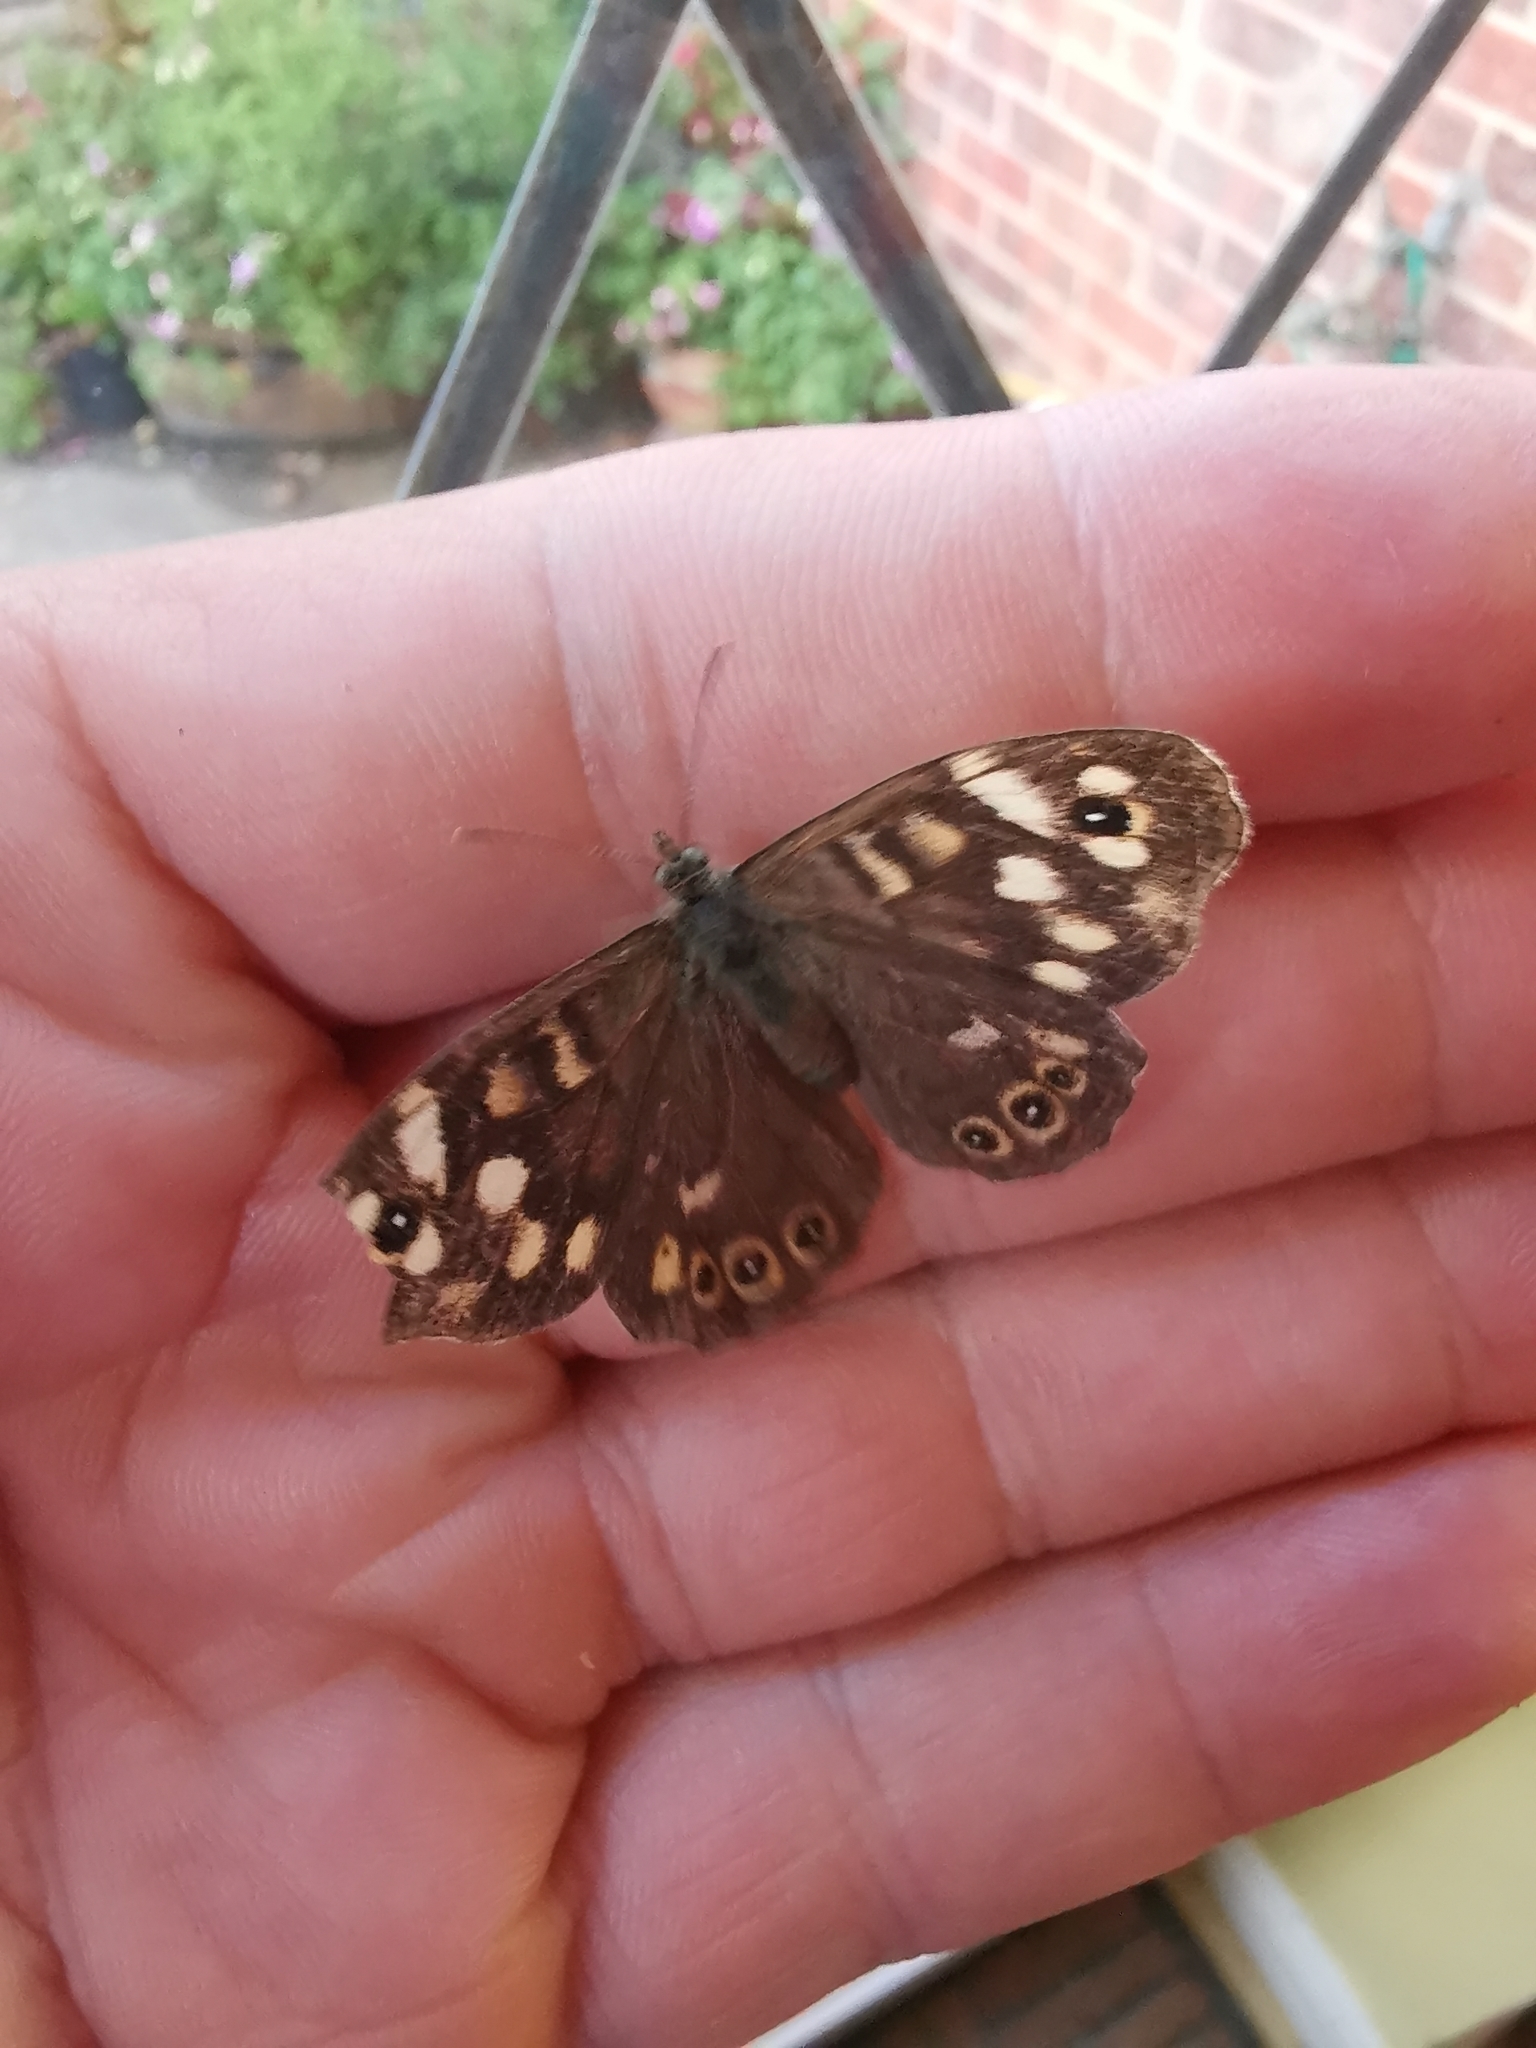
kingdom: Animalia
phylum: Arthropoda
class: Insecta
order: Lepidoptera
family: Nymphalidae
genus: Pararge
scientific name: Pararge aegeria
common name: Speckled wood
